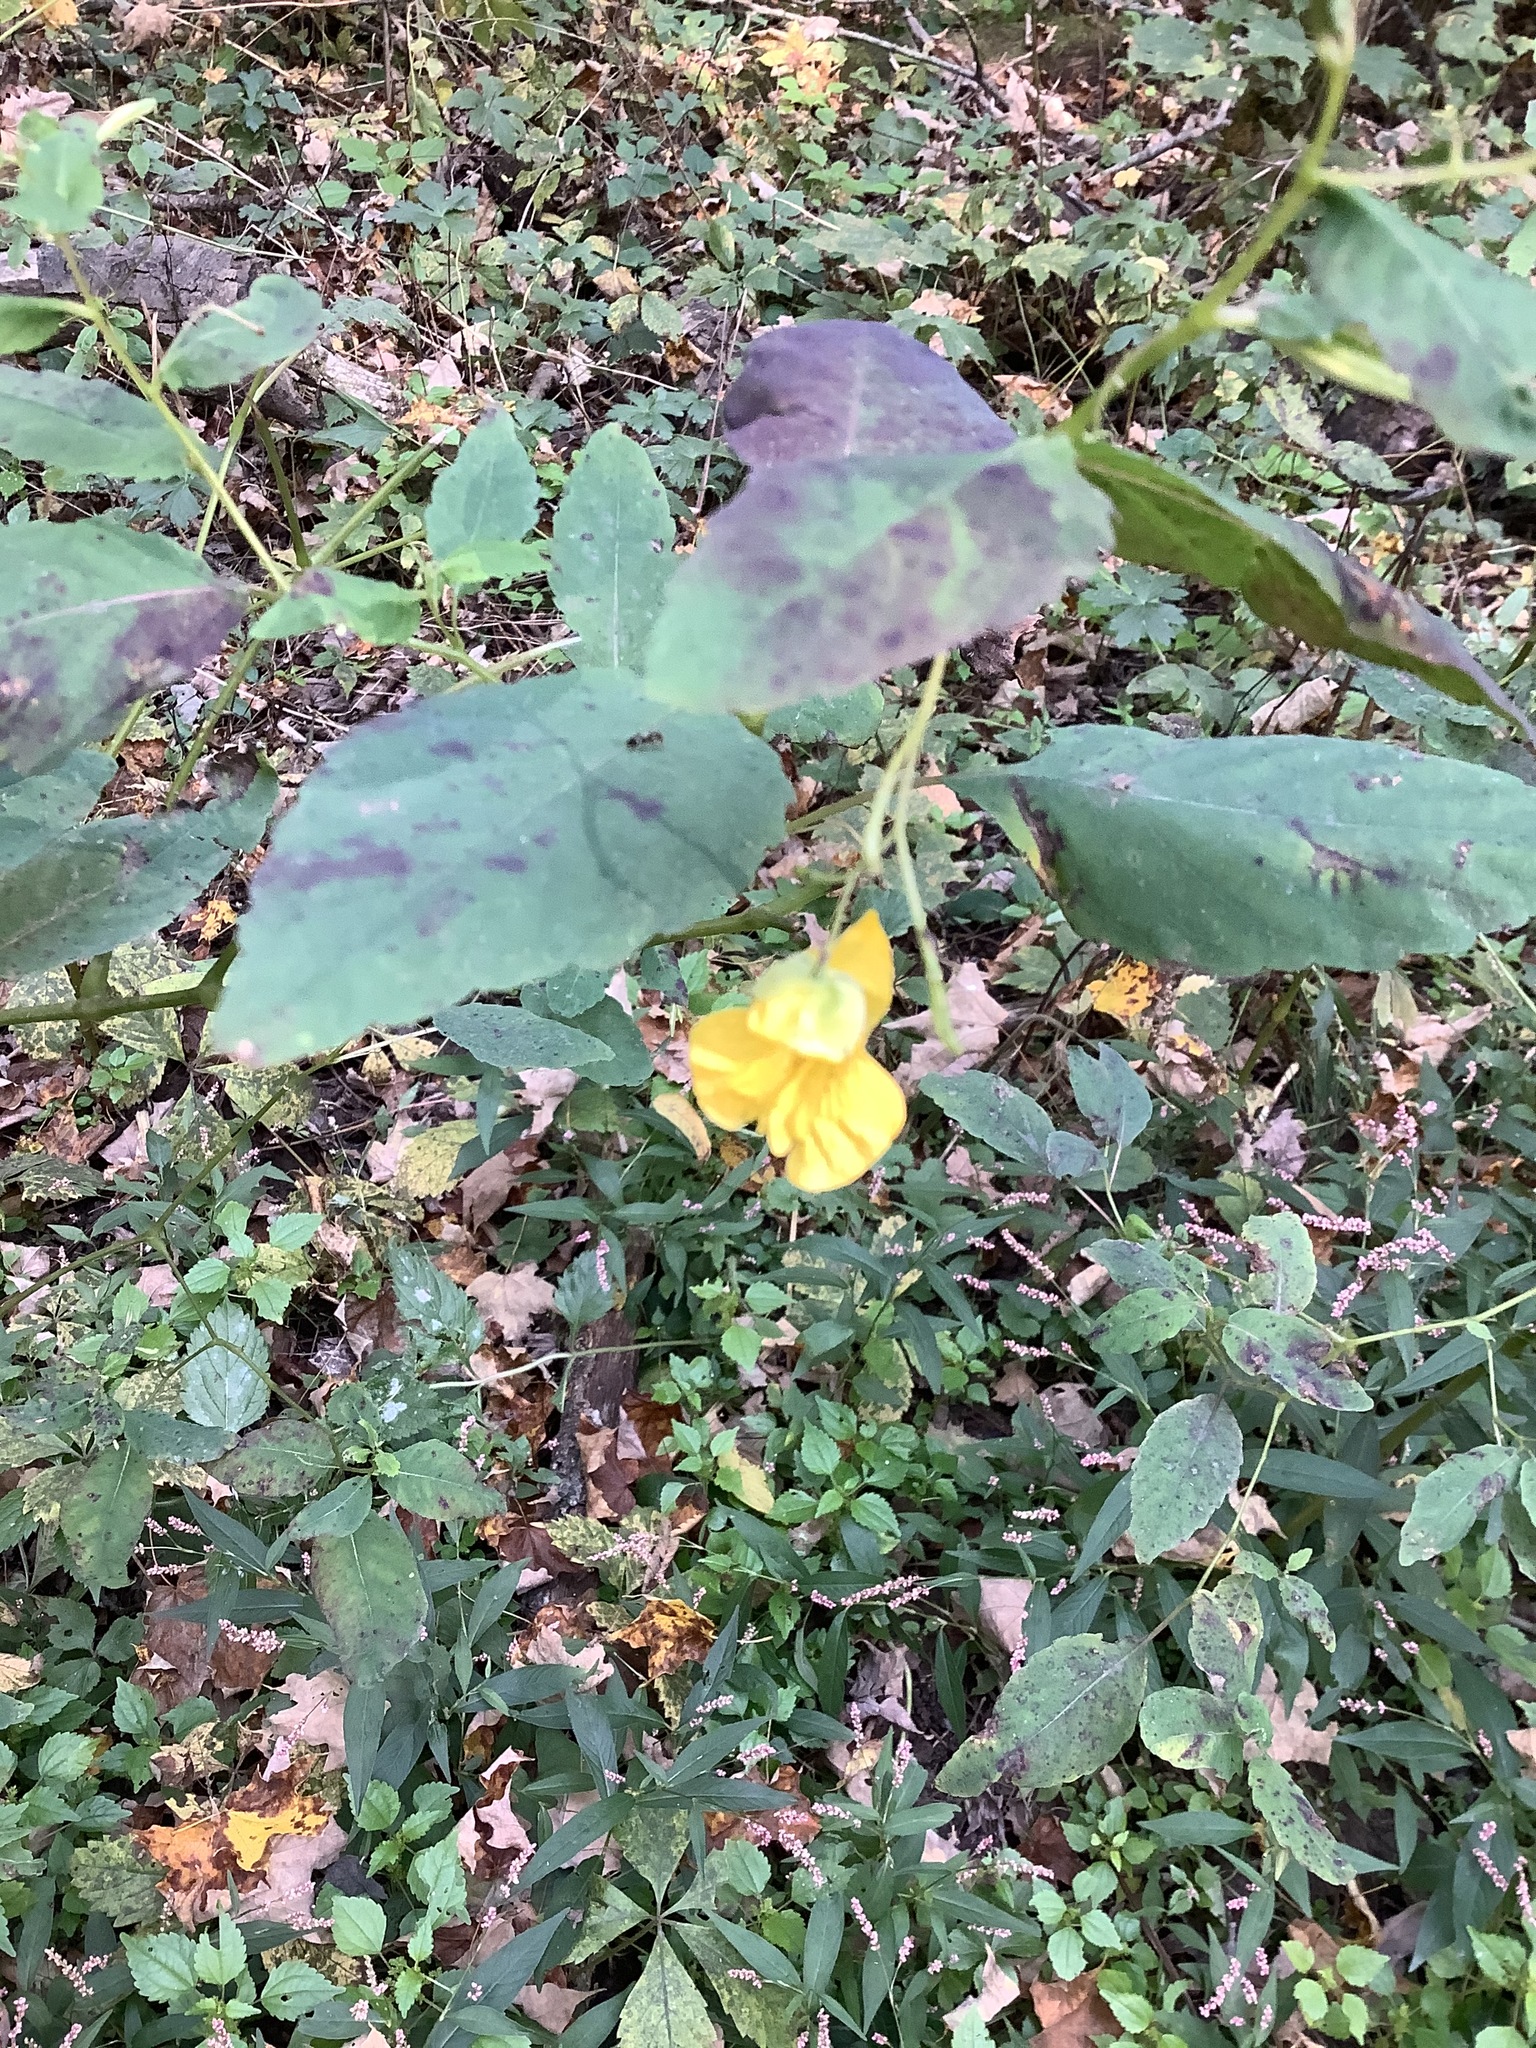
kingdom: Plantae
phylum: Tracheophyta
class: Magnoliopsida
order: Ericales
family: Balsaminaceae
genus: Impatiens
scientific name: Impatiens pallida
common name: Pale snapweed
